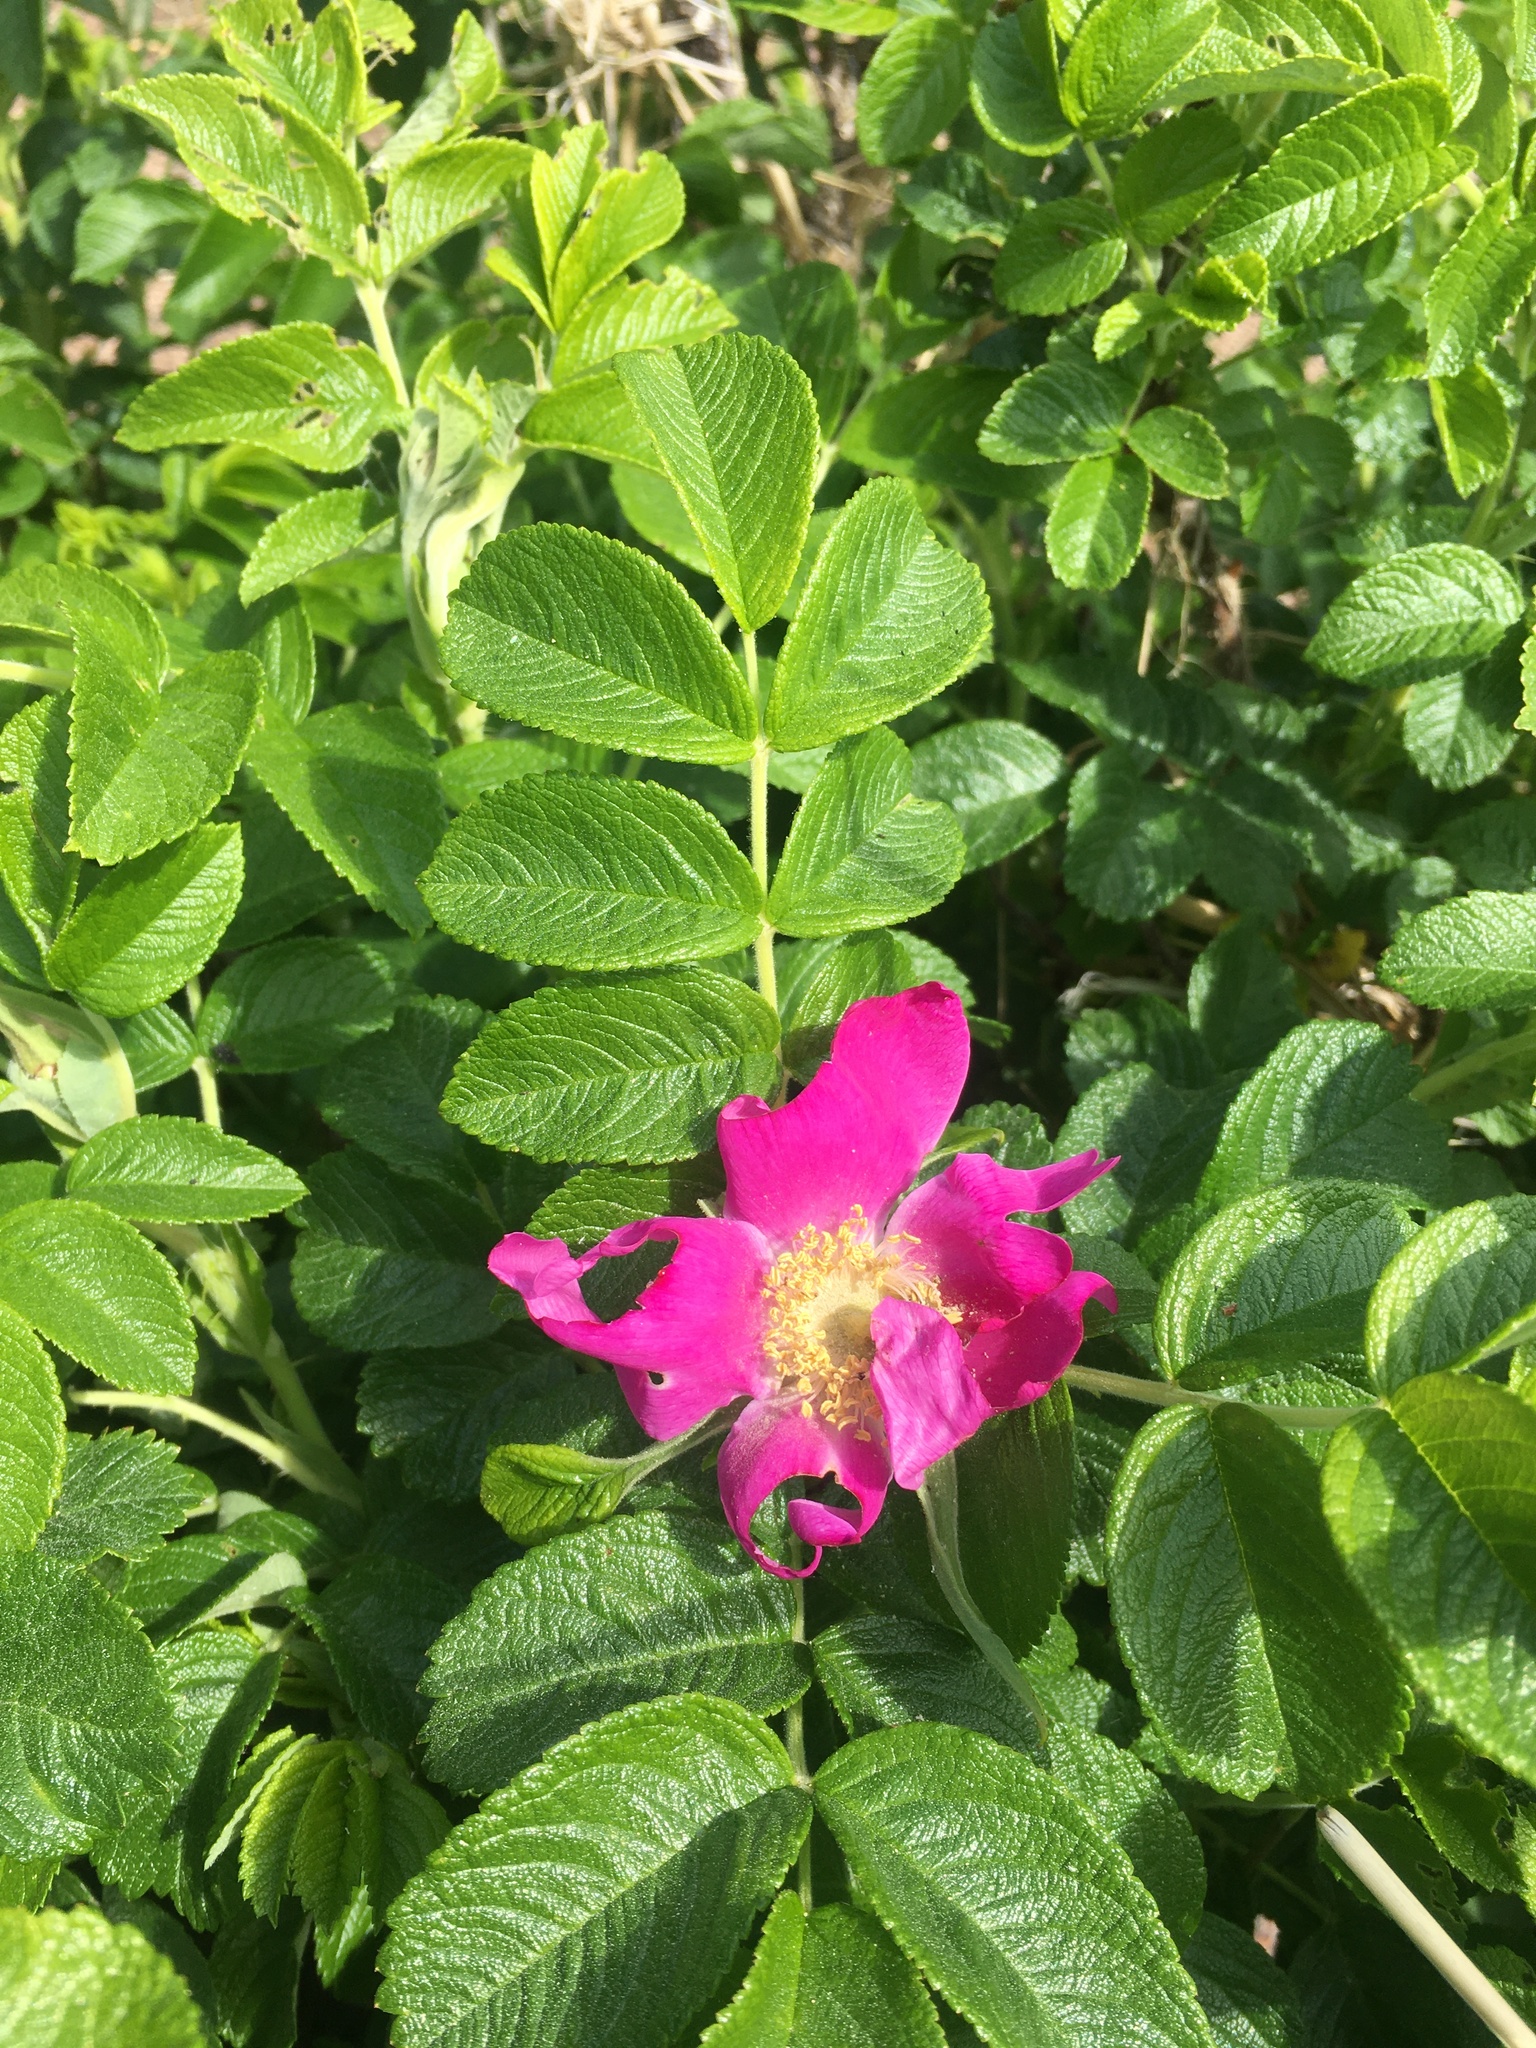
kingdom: Plantae
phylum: Tracheophyta
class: Magnoliopsida
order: Rosales
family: Rosaceae
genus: Rosa
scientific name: Rosa rugosa
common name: Japanese rose
